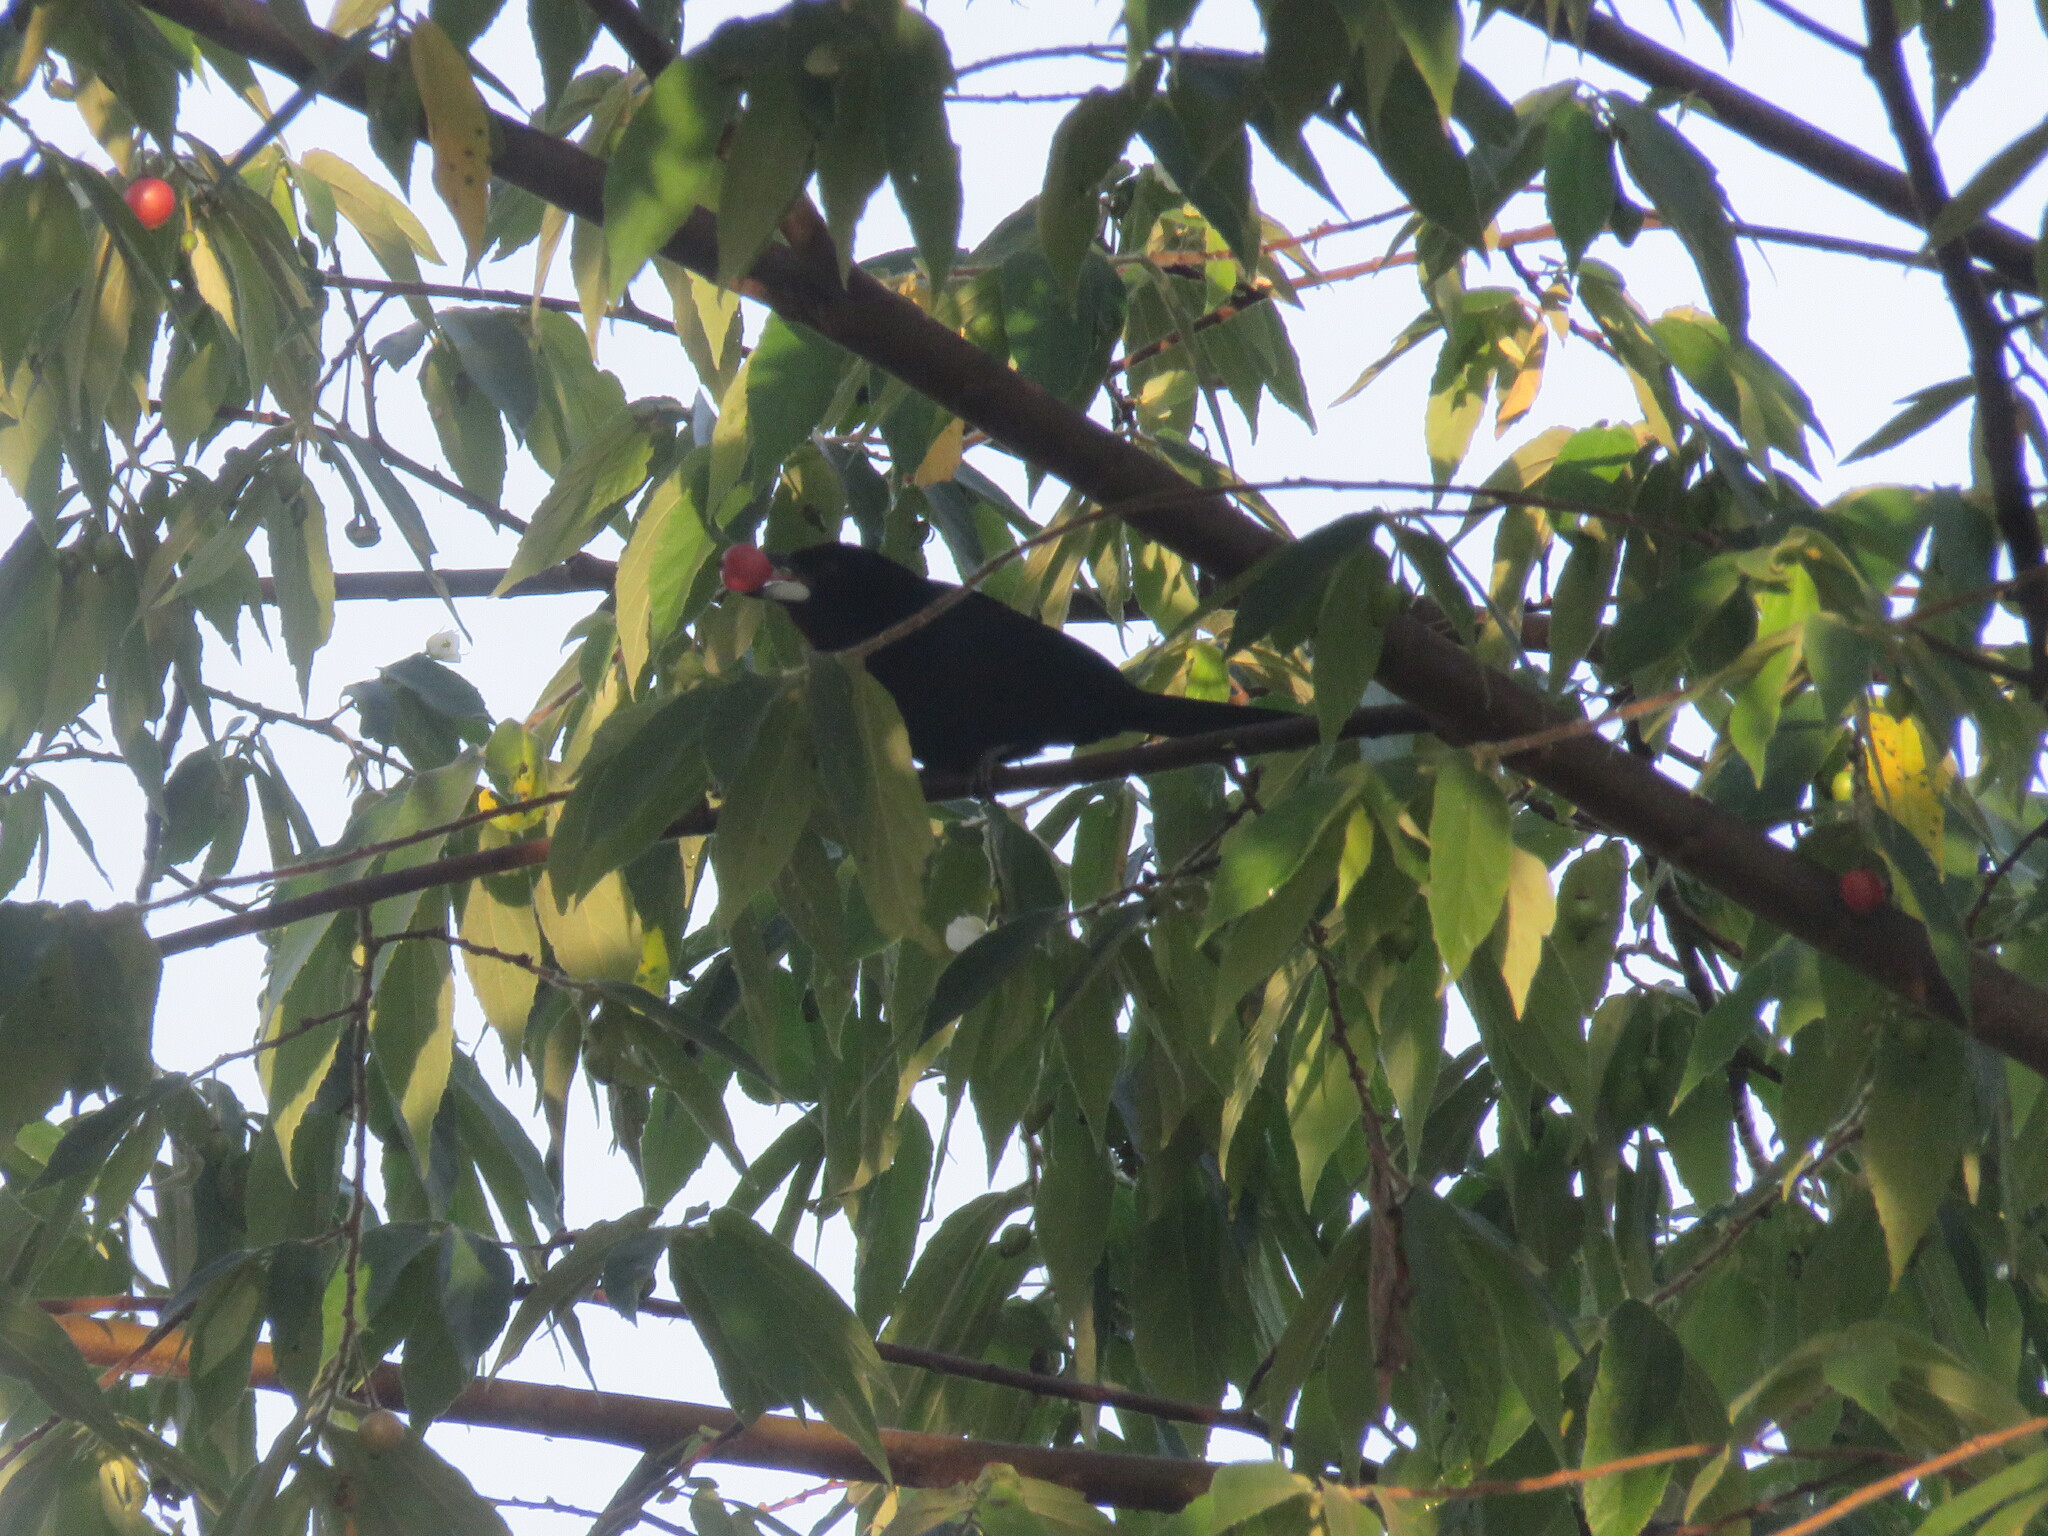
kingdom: Animalia
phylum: Chordata
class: Aves
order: Passeriformes
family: Thraupidae
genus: Ramphocelus
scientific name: Ramphocelus carbo
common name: Silver-beaked tanager
